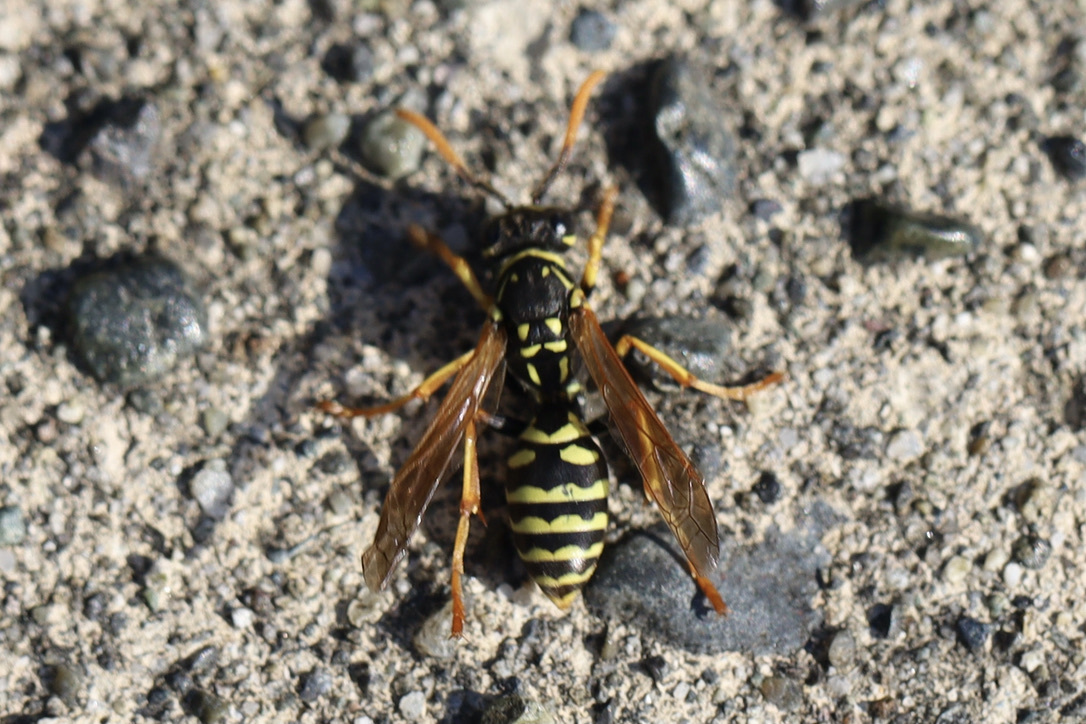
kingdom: Animalia
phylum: Arthropoda
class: Insecta
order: Hymenoptera
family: Eumenidae
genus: Polistes
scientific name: Polistes dominula
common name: Paper wasp
